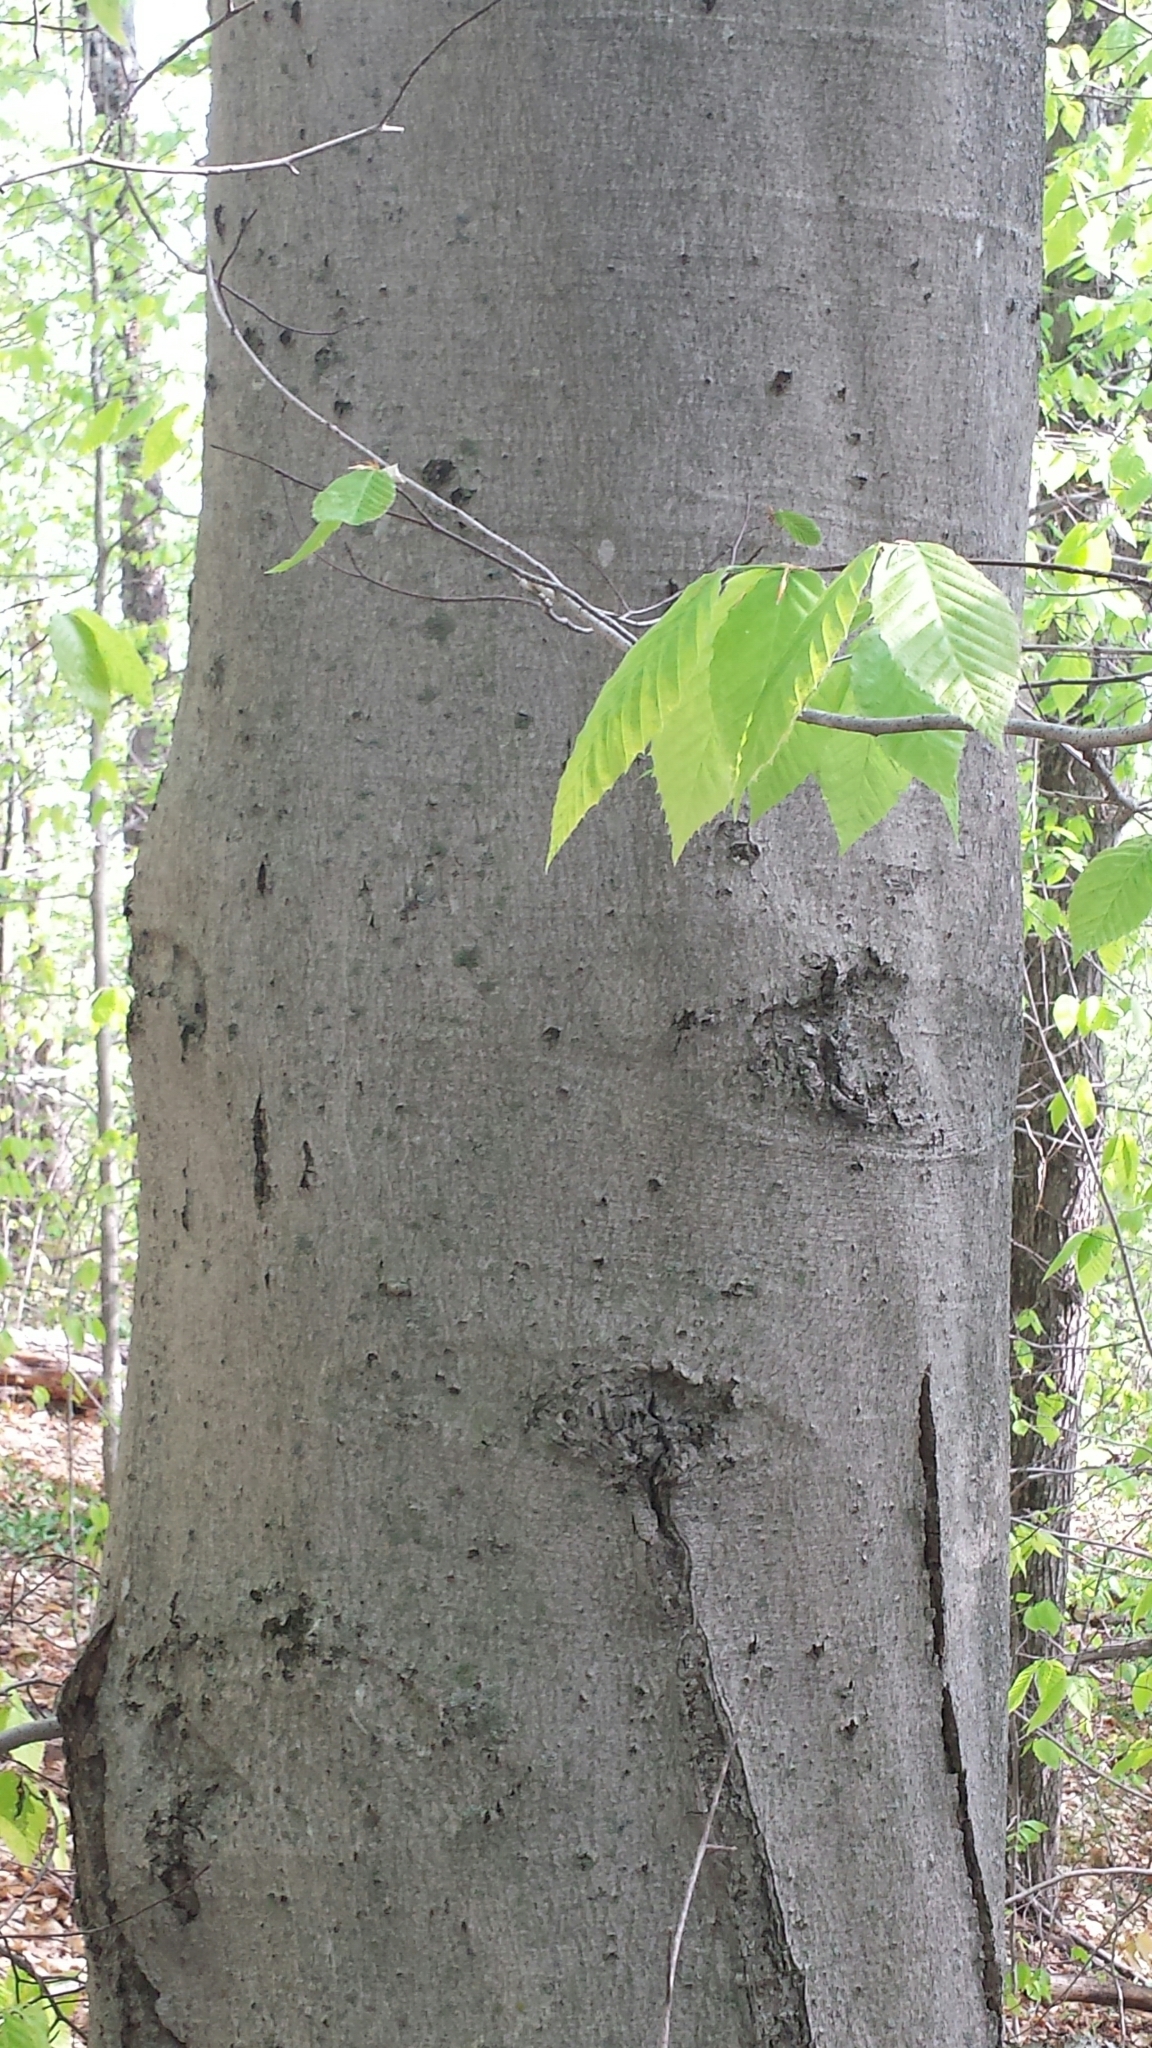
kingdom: Plantae
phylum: Tracheophyta
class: Magnoliopsida
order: Fagales
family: Fagaceae
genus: Fagus
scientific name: Fagus grandifolia
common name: American beech
